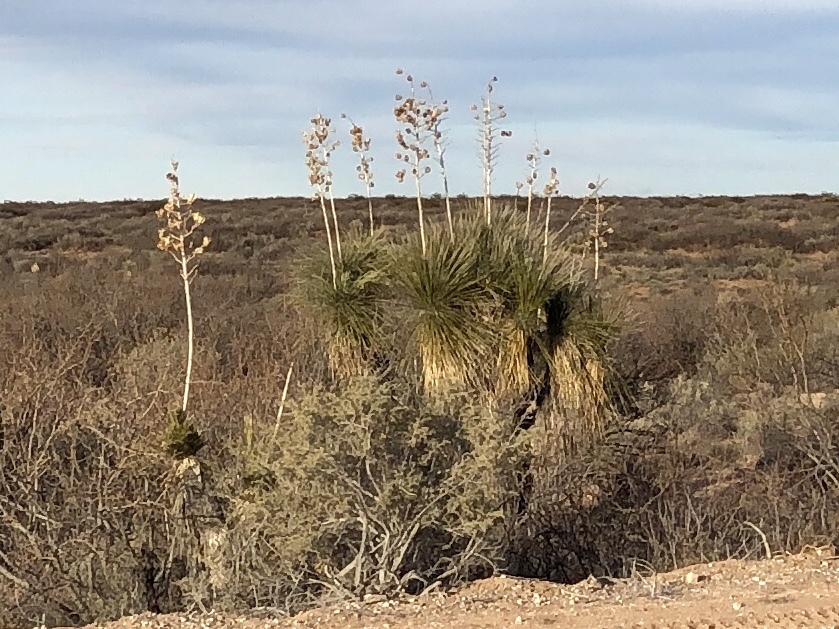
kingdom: Plantae
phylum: Tracheophyta
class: Liliopsida
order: Asparagales
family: Asparagaceae
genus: Yucca
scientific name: Yucca elata
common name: Palmella
